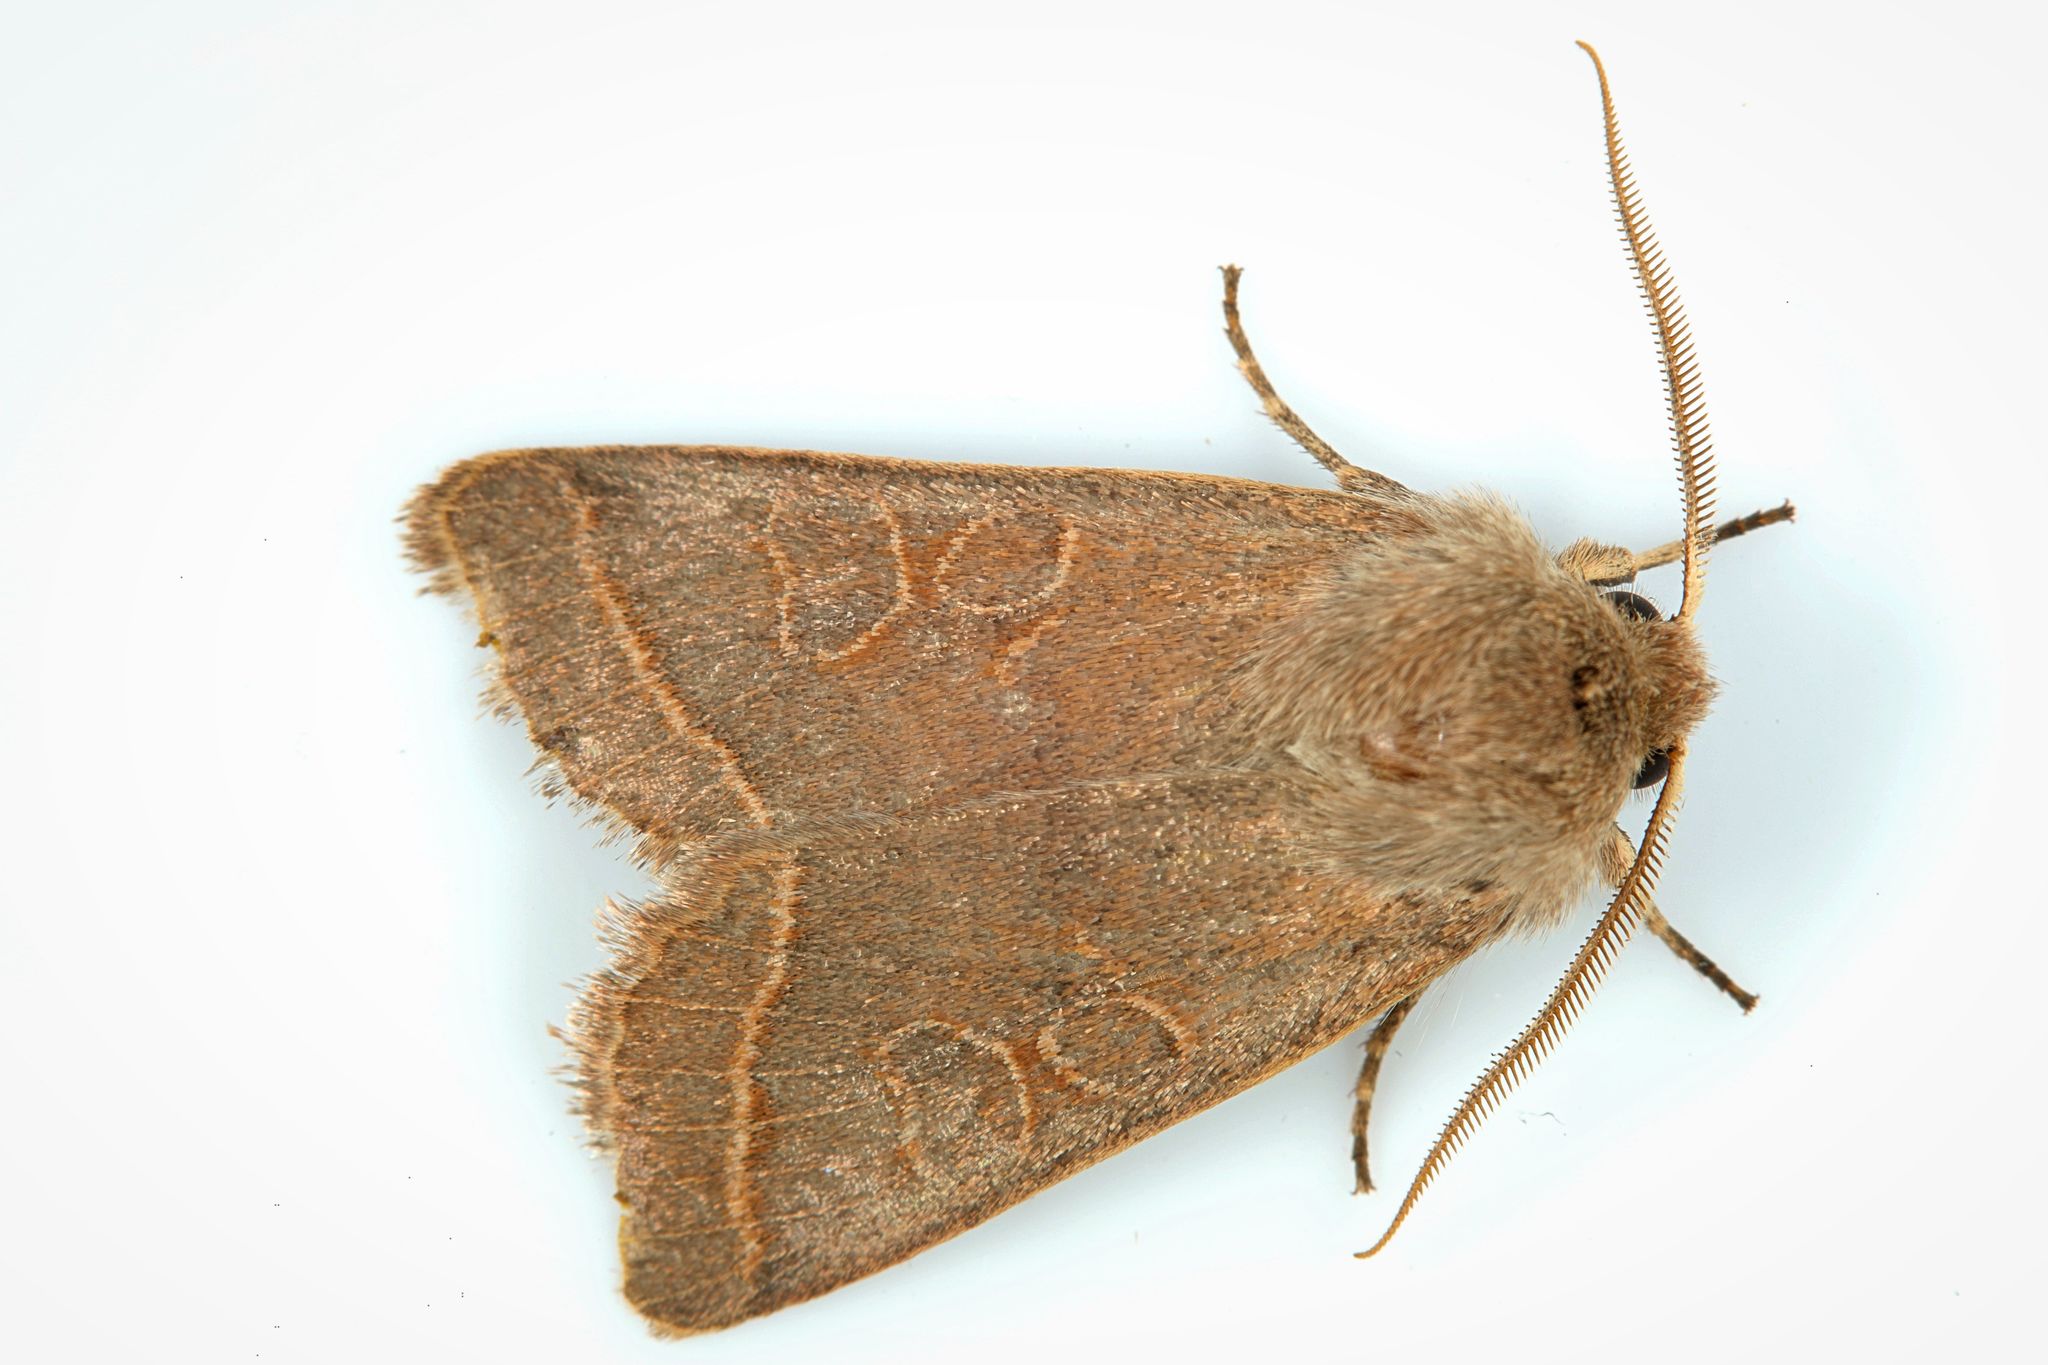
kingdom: Animalia
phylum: Arthropoda
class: Insecta
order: Lepidoptera
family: Noctuidae
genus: Orthosia
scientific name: Orthosia cerasi
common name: Common quaker
